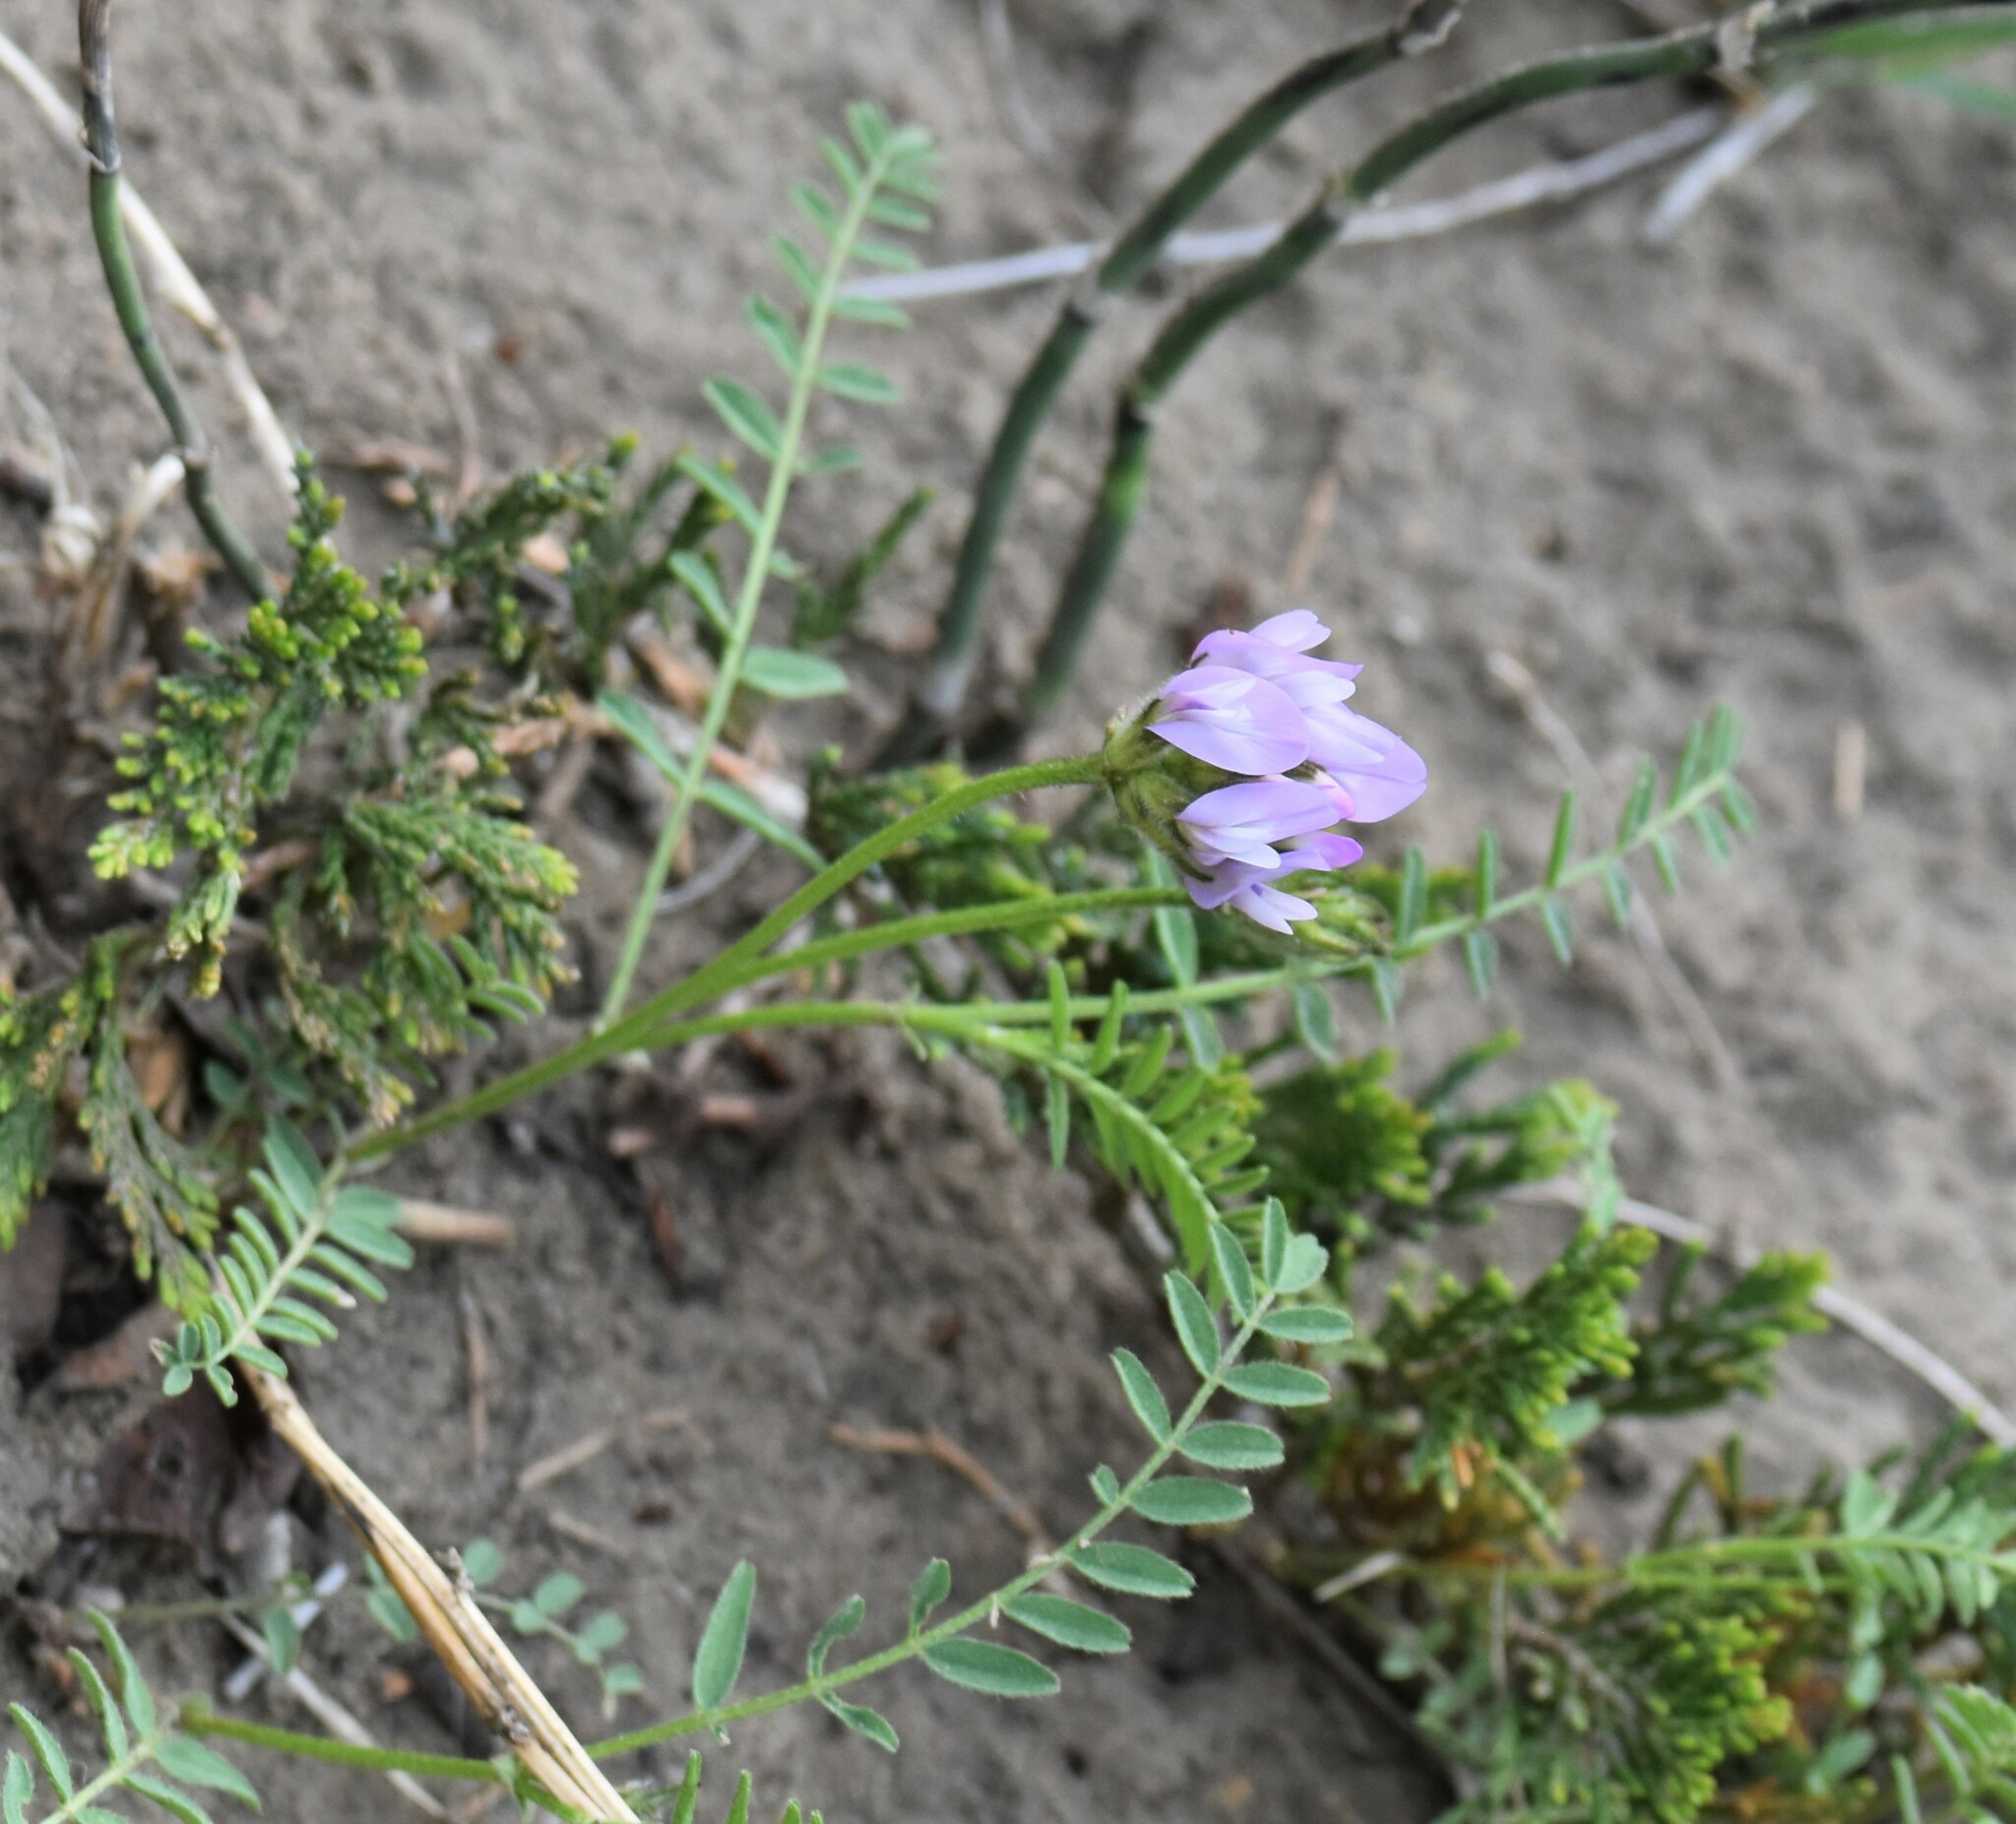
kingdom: Plantae
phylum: Tracheophyta
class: Magnoliopsida
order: Fabales
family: Fabaceae
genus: Astragalus
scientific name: Astragalus agrestis
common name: Field milk-vetch
